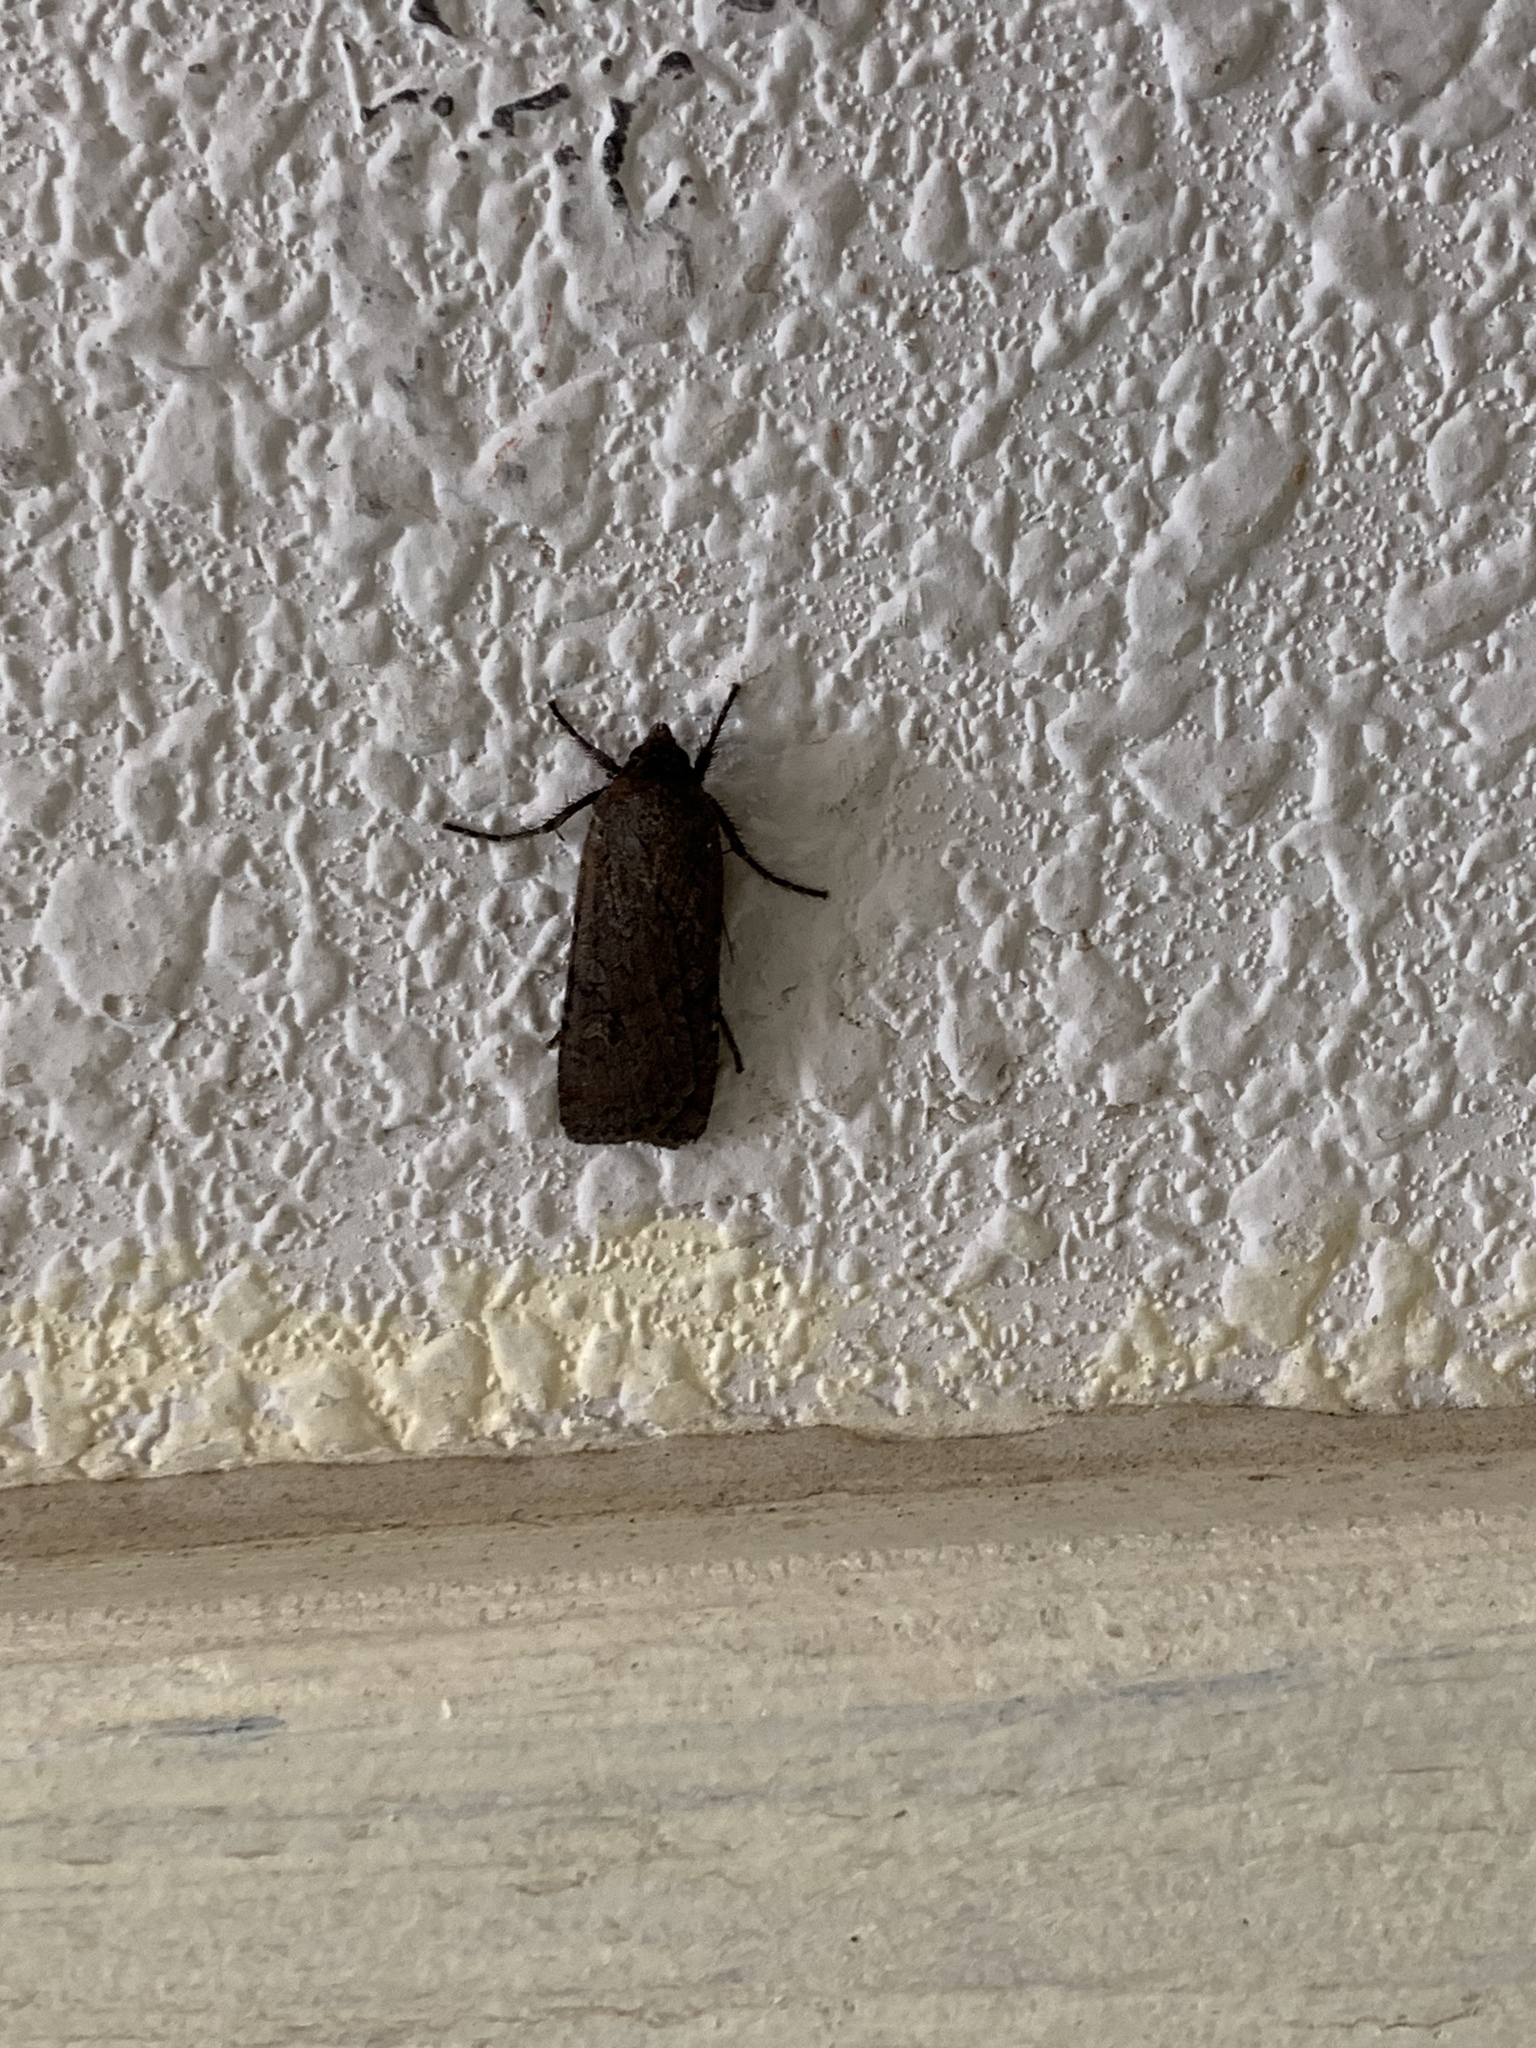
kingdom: Animalia
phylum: Arthropoda
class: Insecta
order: Lepidoptera
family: Noctuidae
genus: Euxoa
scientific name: Euxoa auxiliaris
